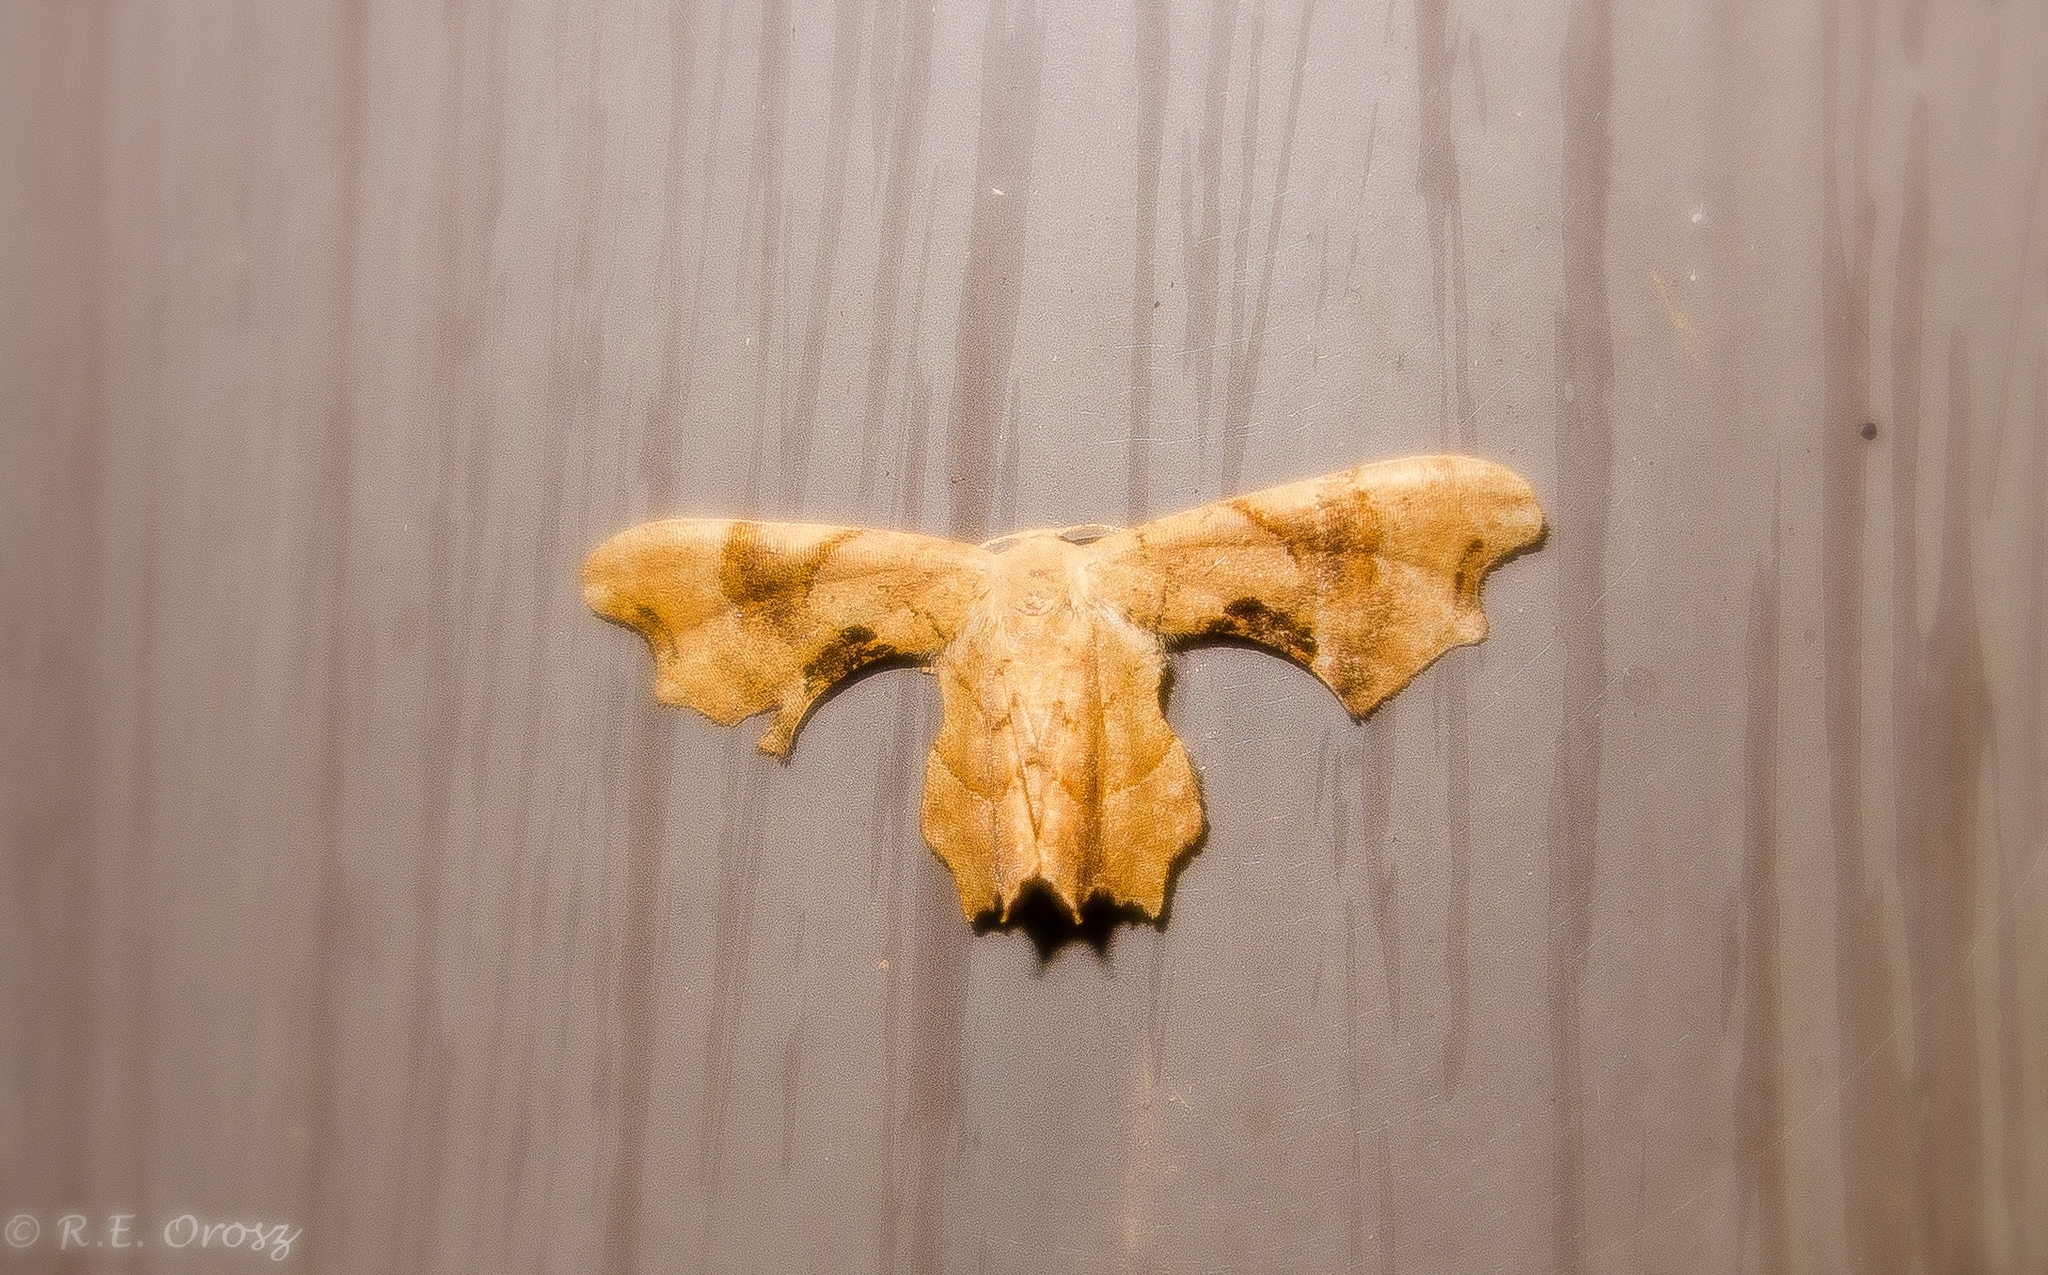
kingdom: Animalia
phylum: Arthropoda
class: Insecta
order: Lepidoptera
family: Uraniidae
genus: Epiplema
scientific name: Epiplema Calledapteryx dryopterata
